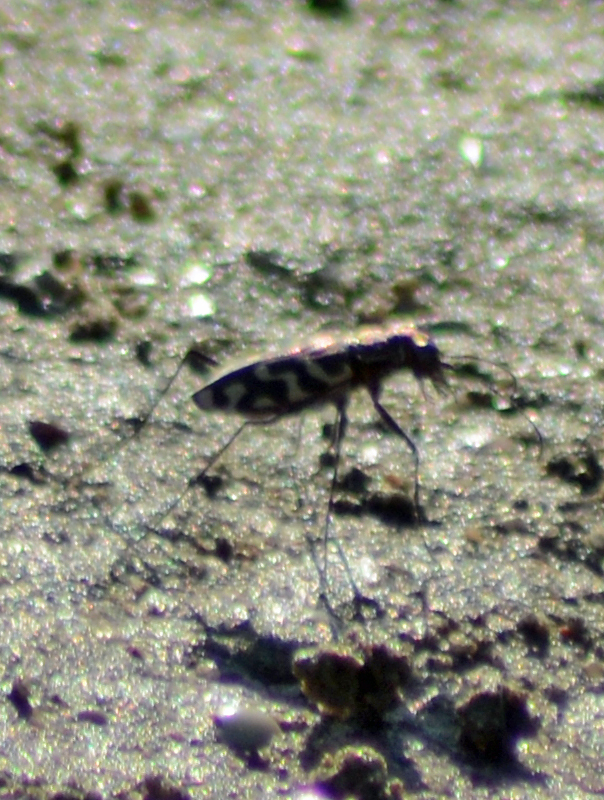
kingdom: Animalia
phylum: Arthropoda
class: Insecta
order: Coleoptera
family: Carabidae
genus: Cicindela
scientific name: Cicindela carthagena
